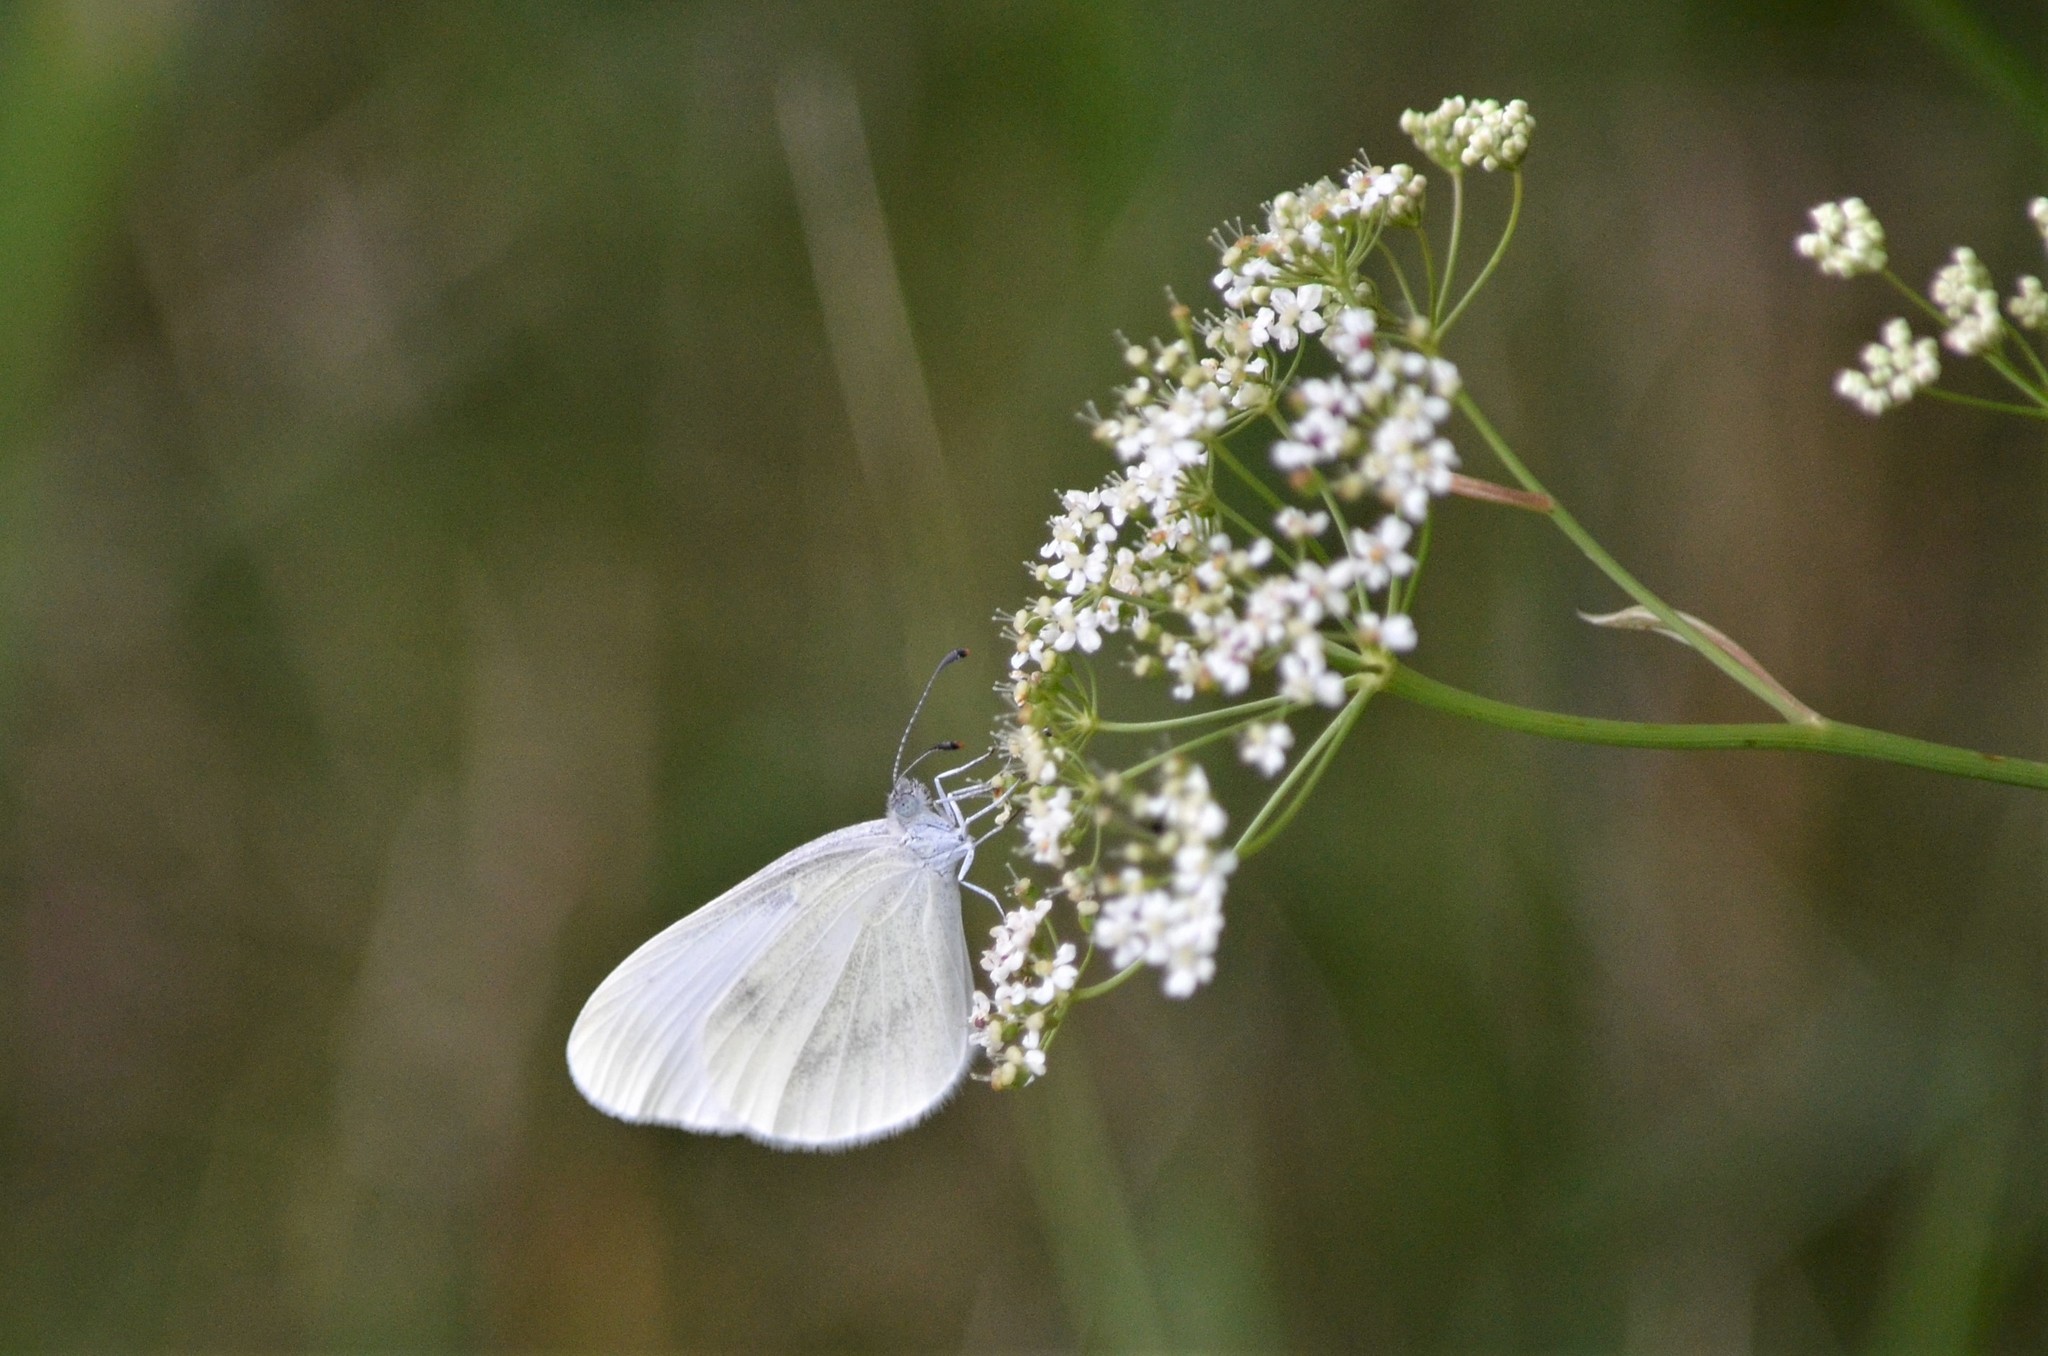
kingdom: Animalia
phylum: Arthropoda
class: Insecta
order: Lepidoptera
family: Pieridae
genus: Leptidea
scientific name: Leptidea
